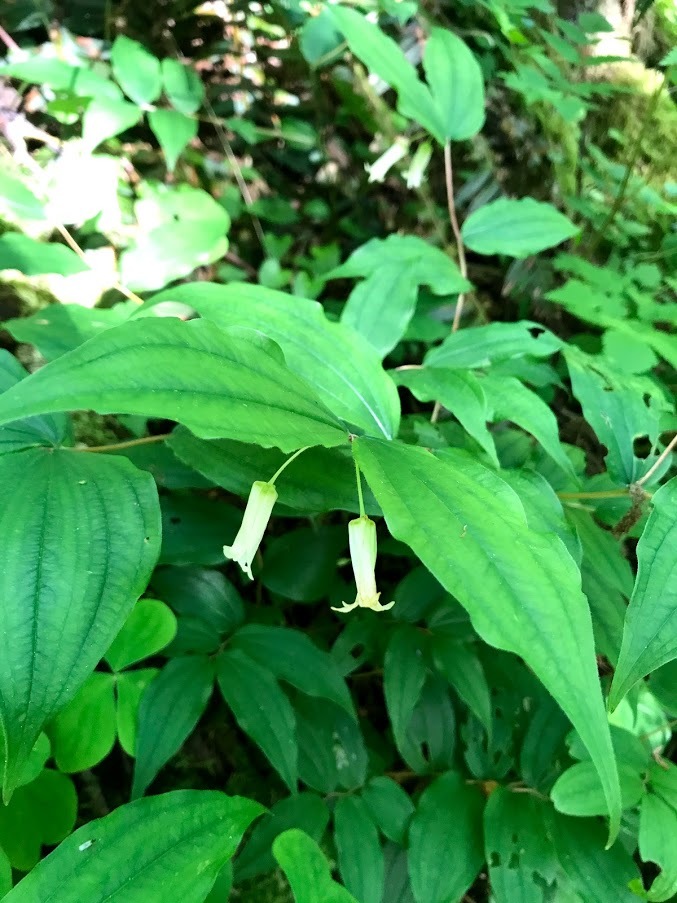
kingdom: Plantae
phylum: Tracheophyta
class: Liliopsida
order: Liliales
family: Liliaceae
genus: Prosartes
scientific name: Prosartes smithii
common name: Fairy-lantern
